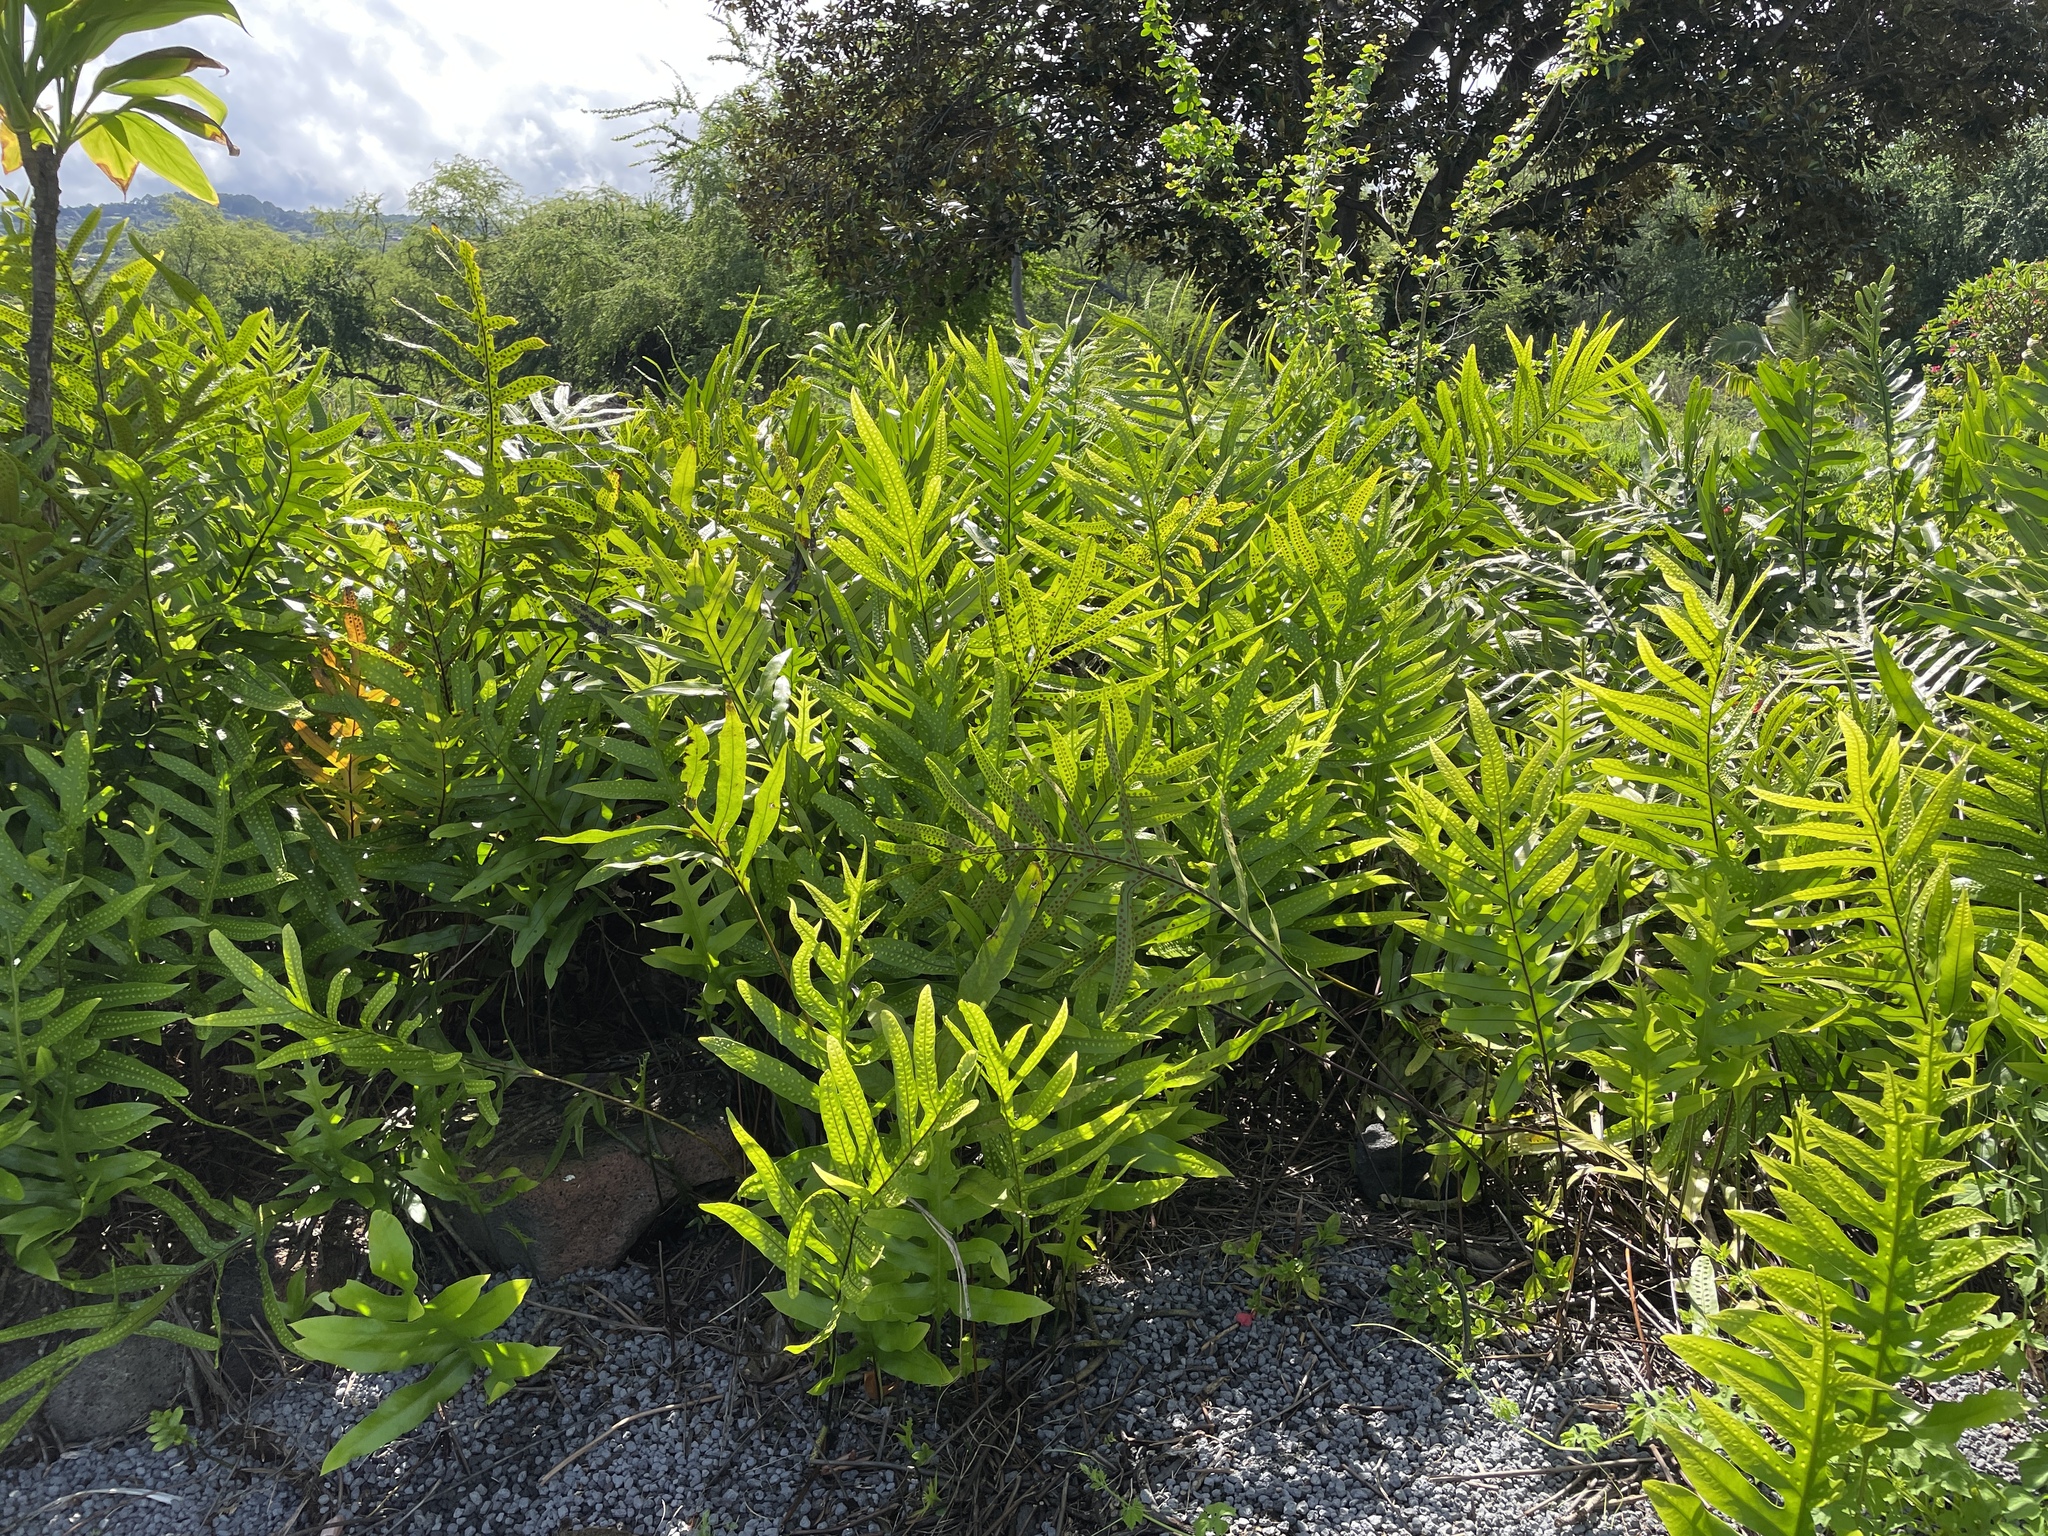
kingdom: Plantae
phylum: Tracheophyta
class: Polypodiopsida
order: Polypodiales
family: Polypodiaceae
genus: Microsorum
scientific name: Microsorum grossum
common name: Musk fern
